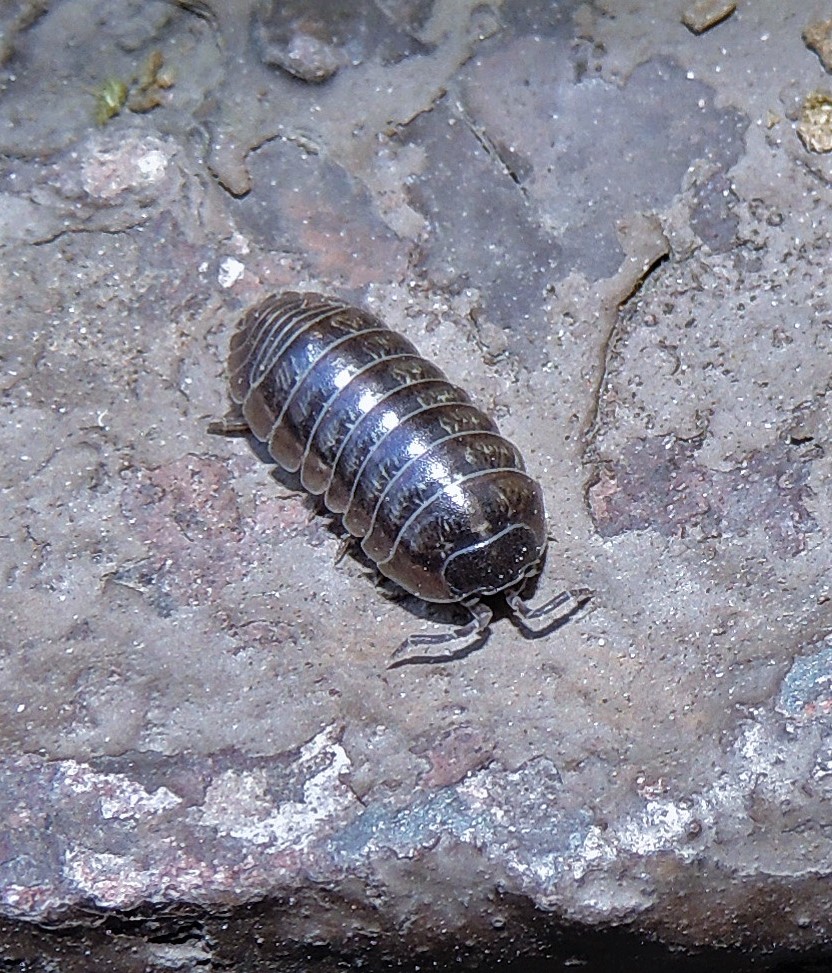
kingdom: Animalia
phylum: Arthropoda
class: Malacostraca
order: Isopoda
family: Armadillidiidae
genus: Armadillidium
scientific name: Armadillidium vulgare
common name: Common pill woodlouse
